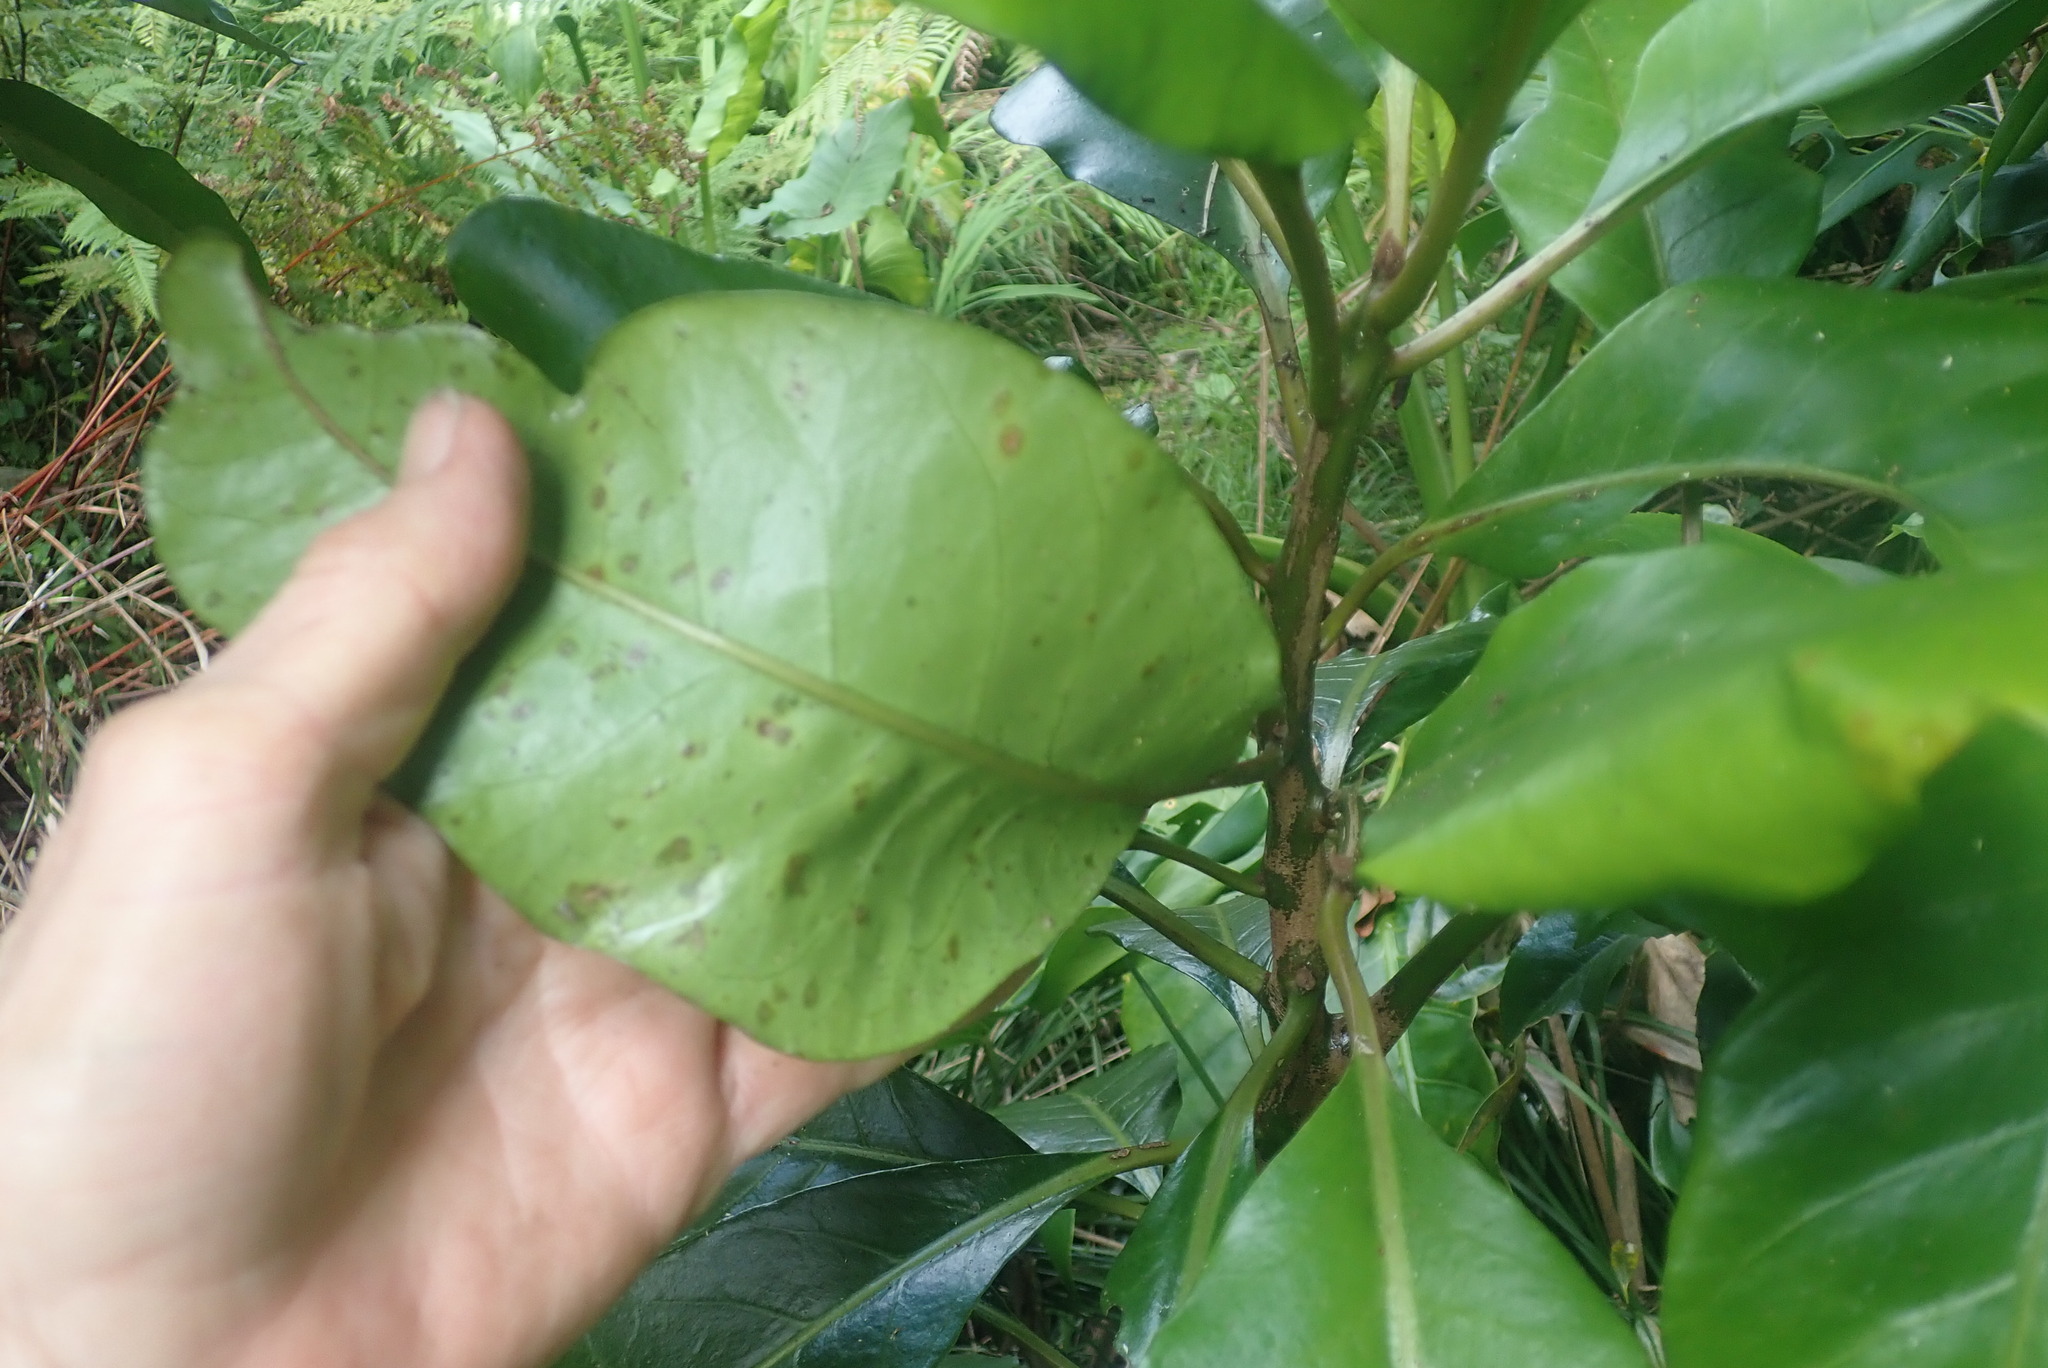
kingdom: Plantae
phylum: Tracheophyta
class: Magnoliopsida
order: Caryophyllales
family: Nyctaginaceae
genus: Ceodes
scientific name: Ceodes brunoniana
